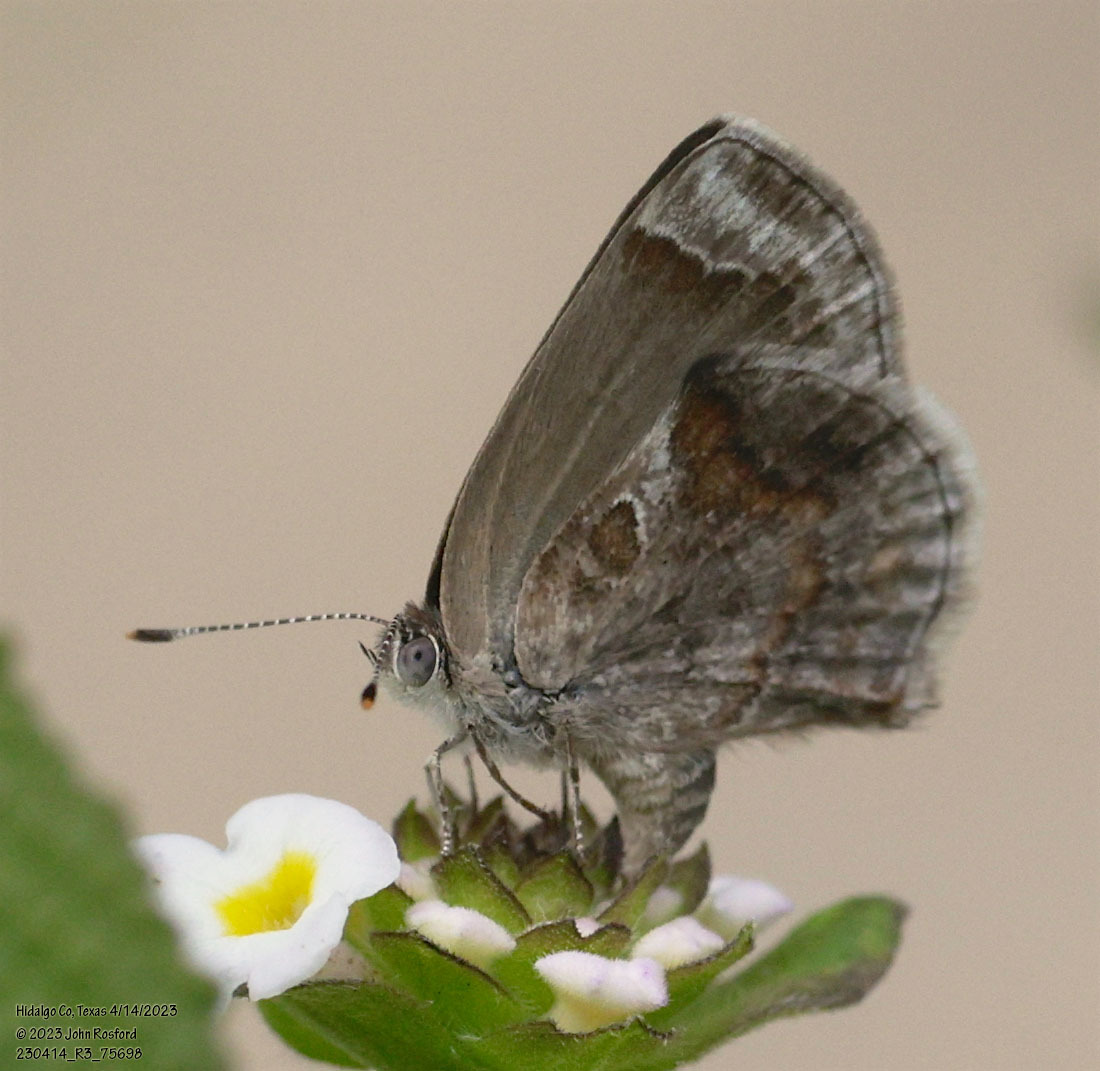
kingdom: Animalia
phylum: Arthropoda
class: Insecta
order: Lepidoptera
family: Lycaenidae
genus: Strymon
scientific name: Strymon bazochii
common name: Lantana scrub-hairstreak
